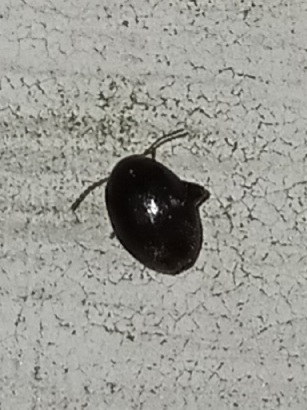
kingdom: Animalia
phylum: Arthropoda
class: Insecta
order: Coleoptera
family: Scirtidae
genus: Scirtes
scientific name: Scirtes tibialis
